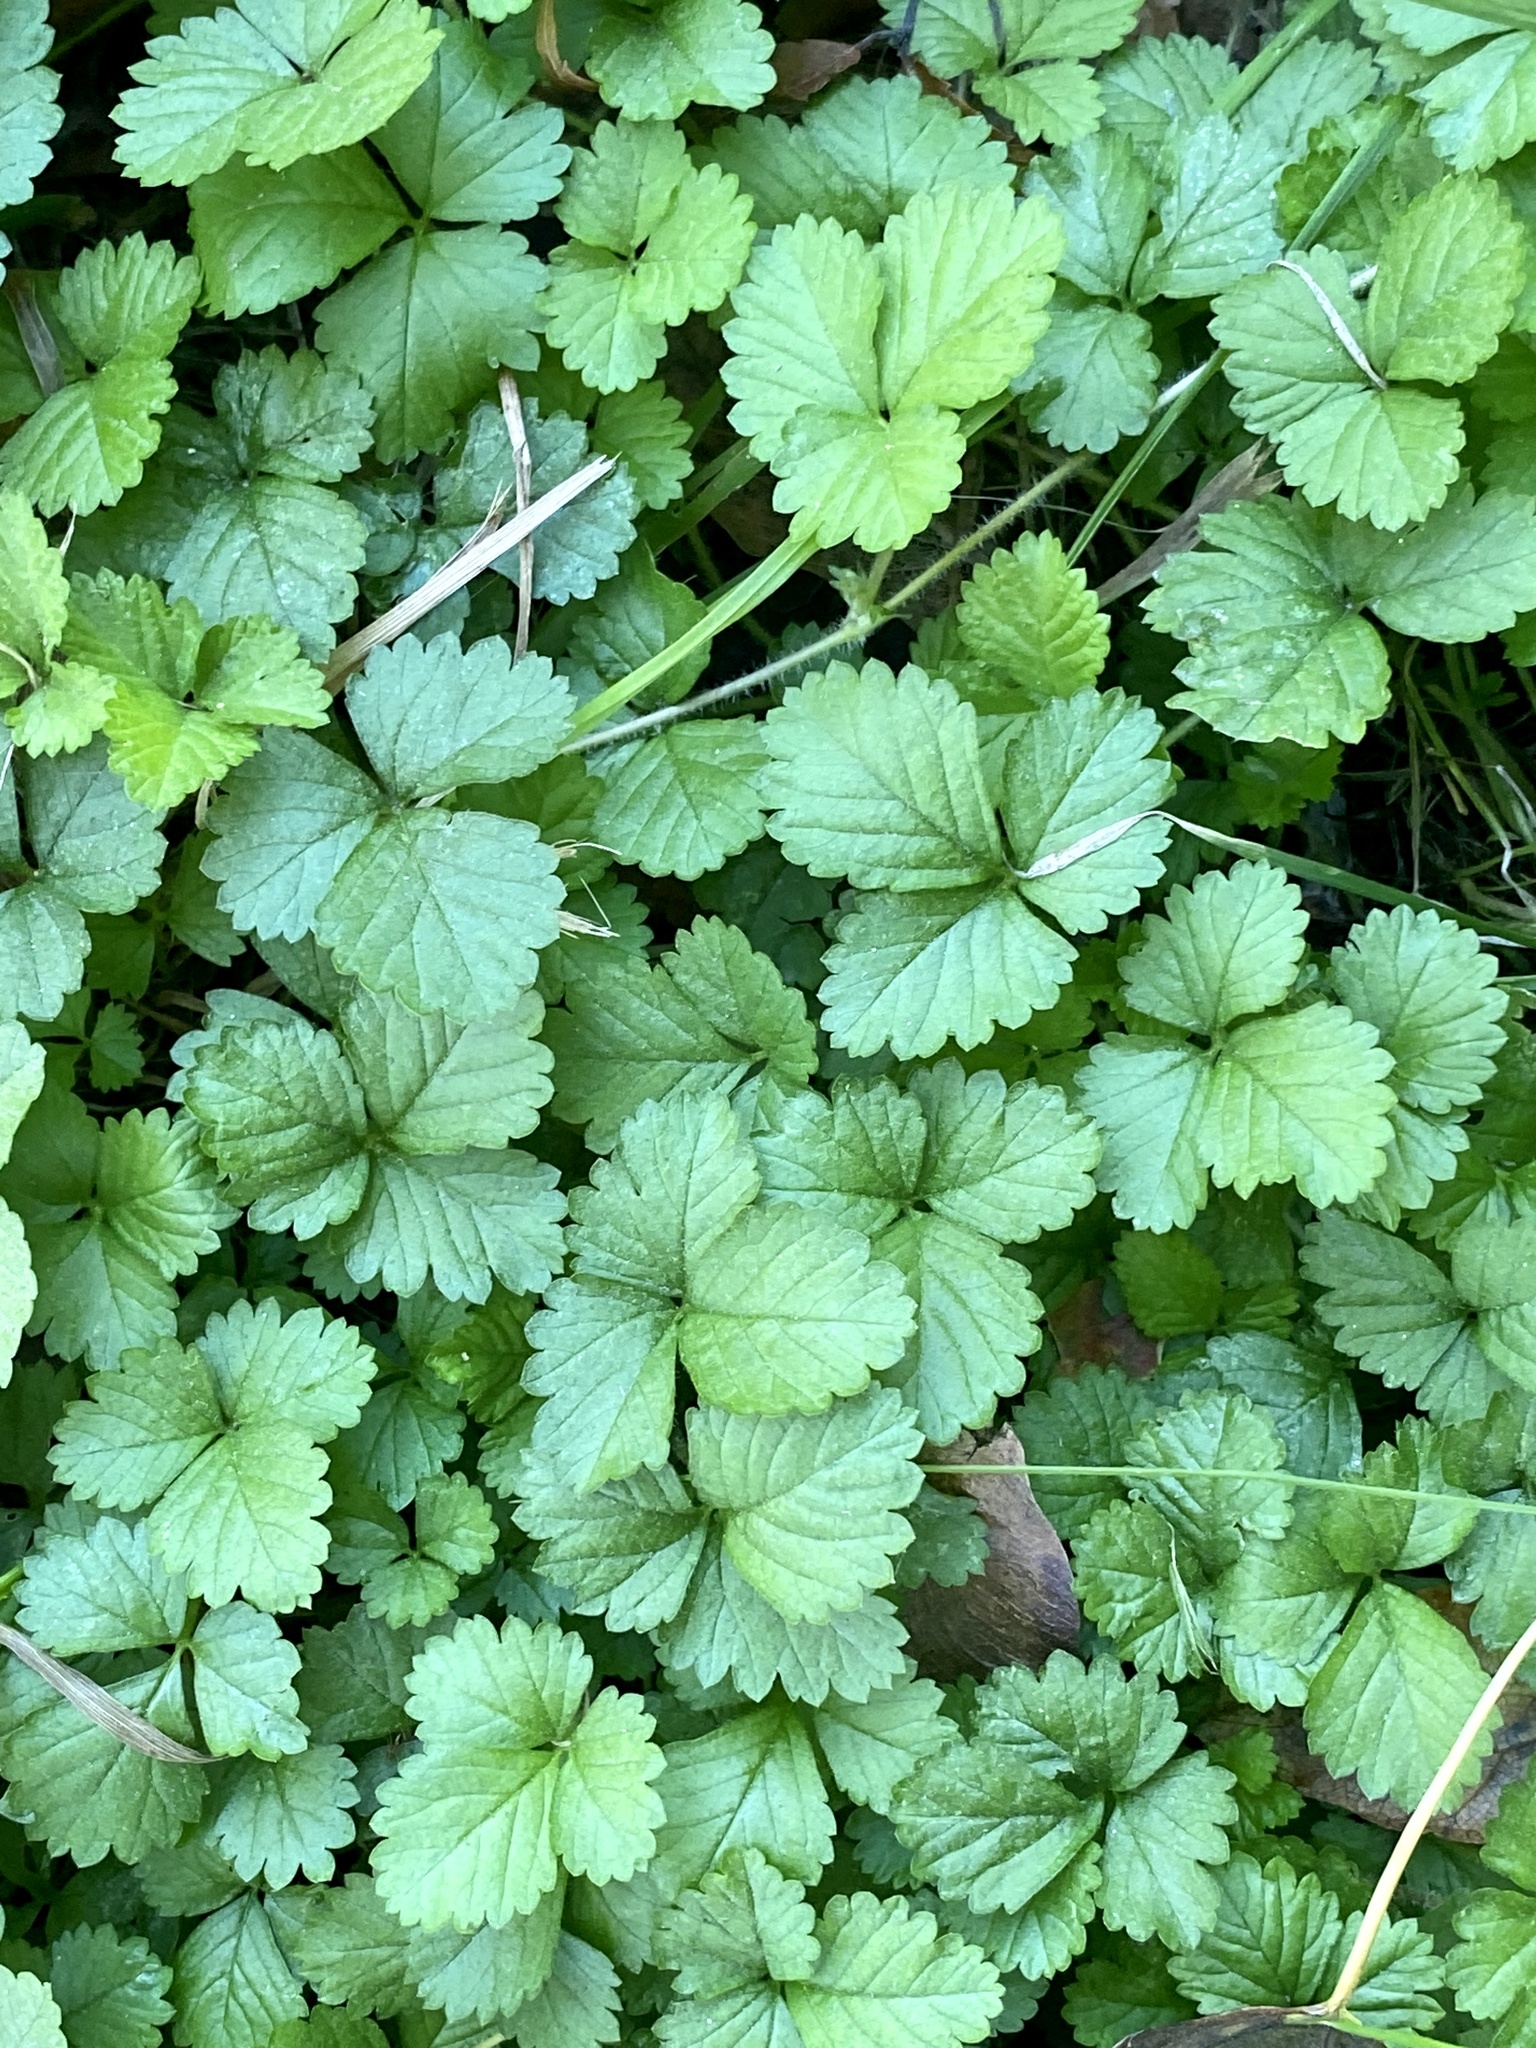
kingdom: Plantae
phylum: Tracheophyta
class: Magnoliopsida
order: Rosales
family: Rosaceae
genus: Potentilla
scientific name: Potentilla indica
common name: Yellow-flowered strawberry
